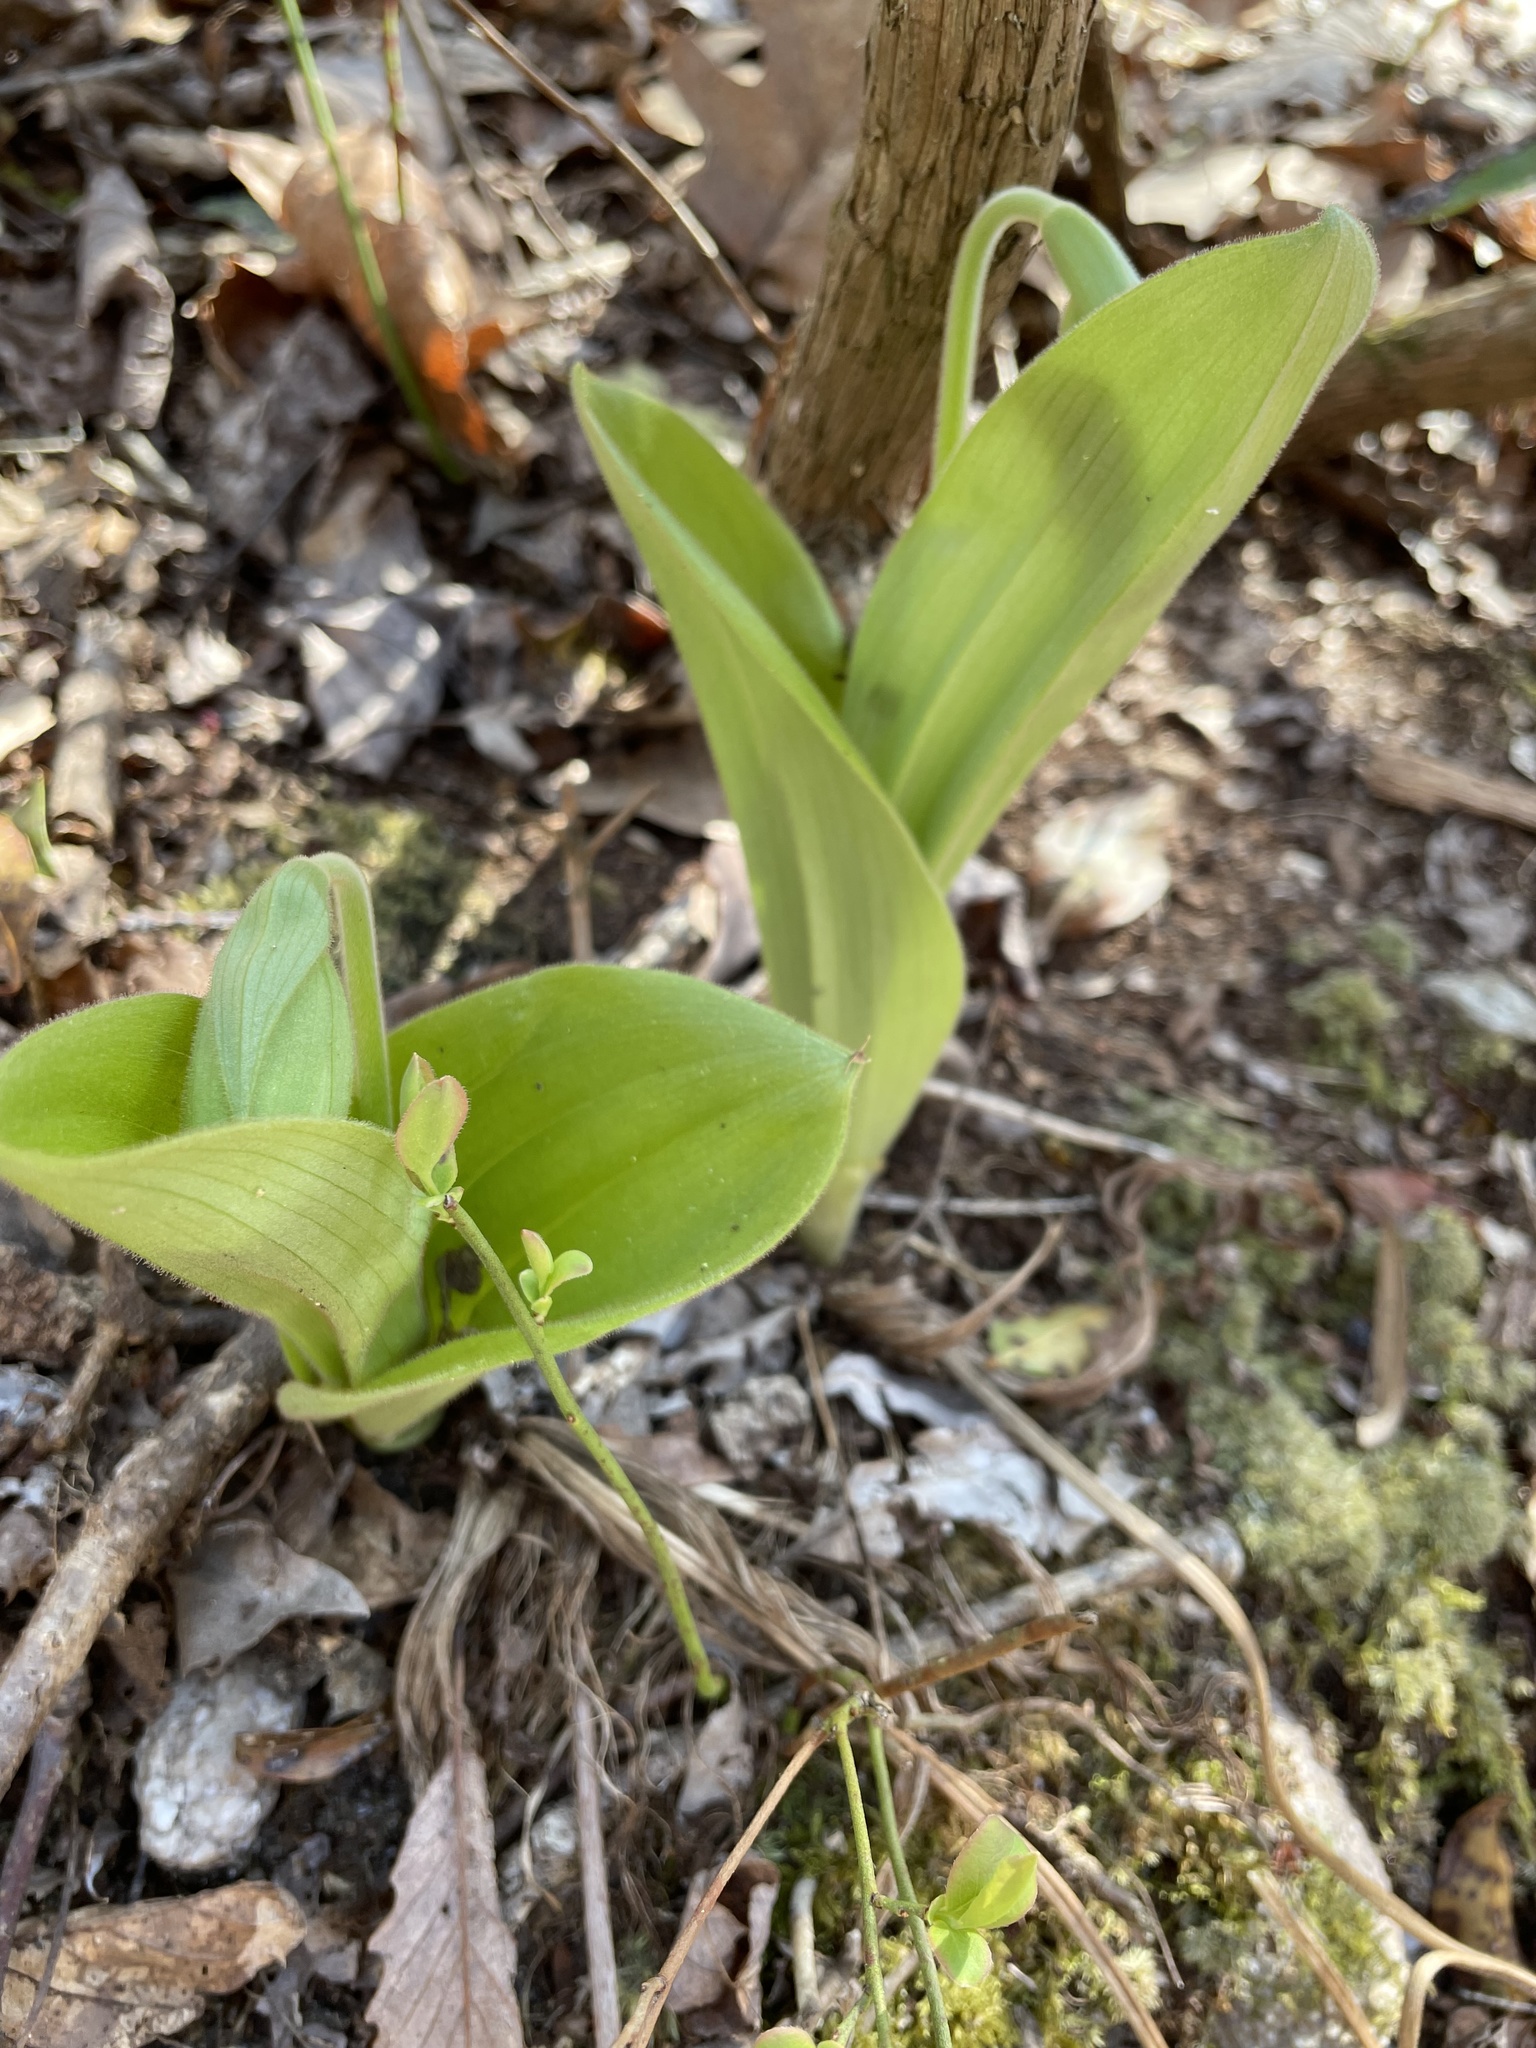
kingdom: Plantae
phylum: Tracheophyta
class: Liliopsida
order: Asparagales
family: Orchidaceae
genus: Cypripedium
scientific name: Cypripedium acaule
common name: Pink lady's-slipper
